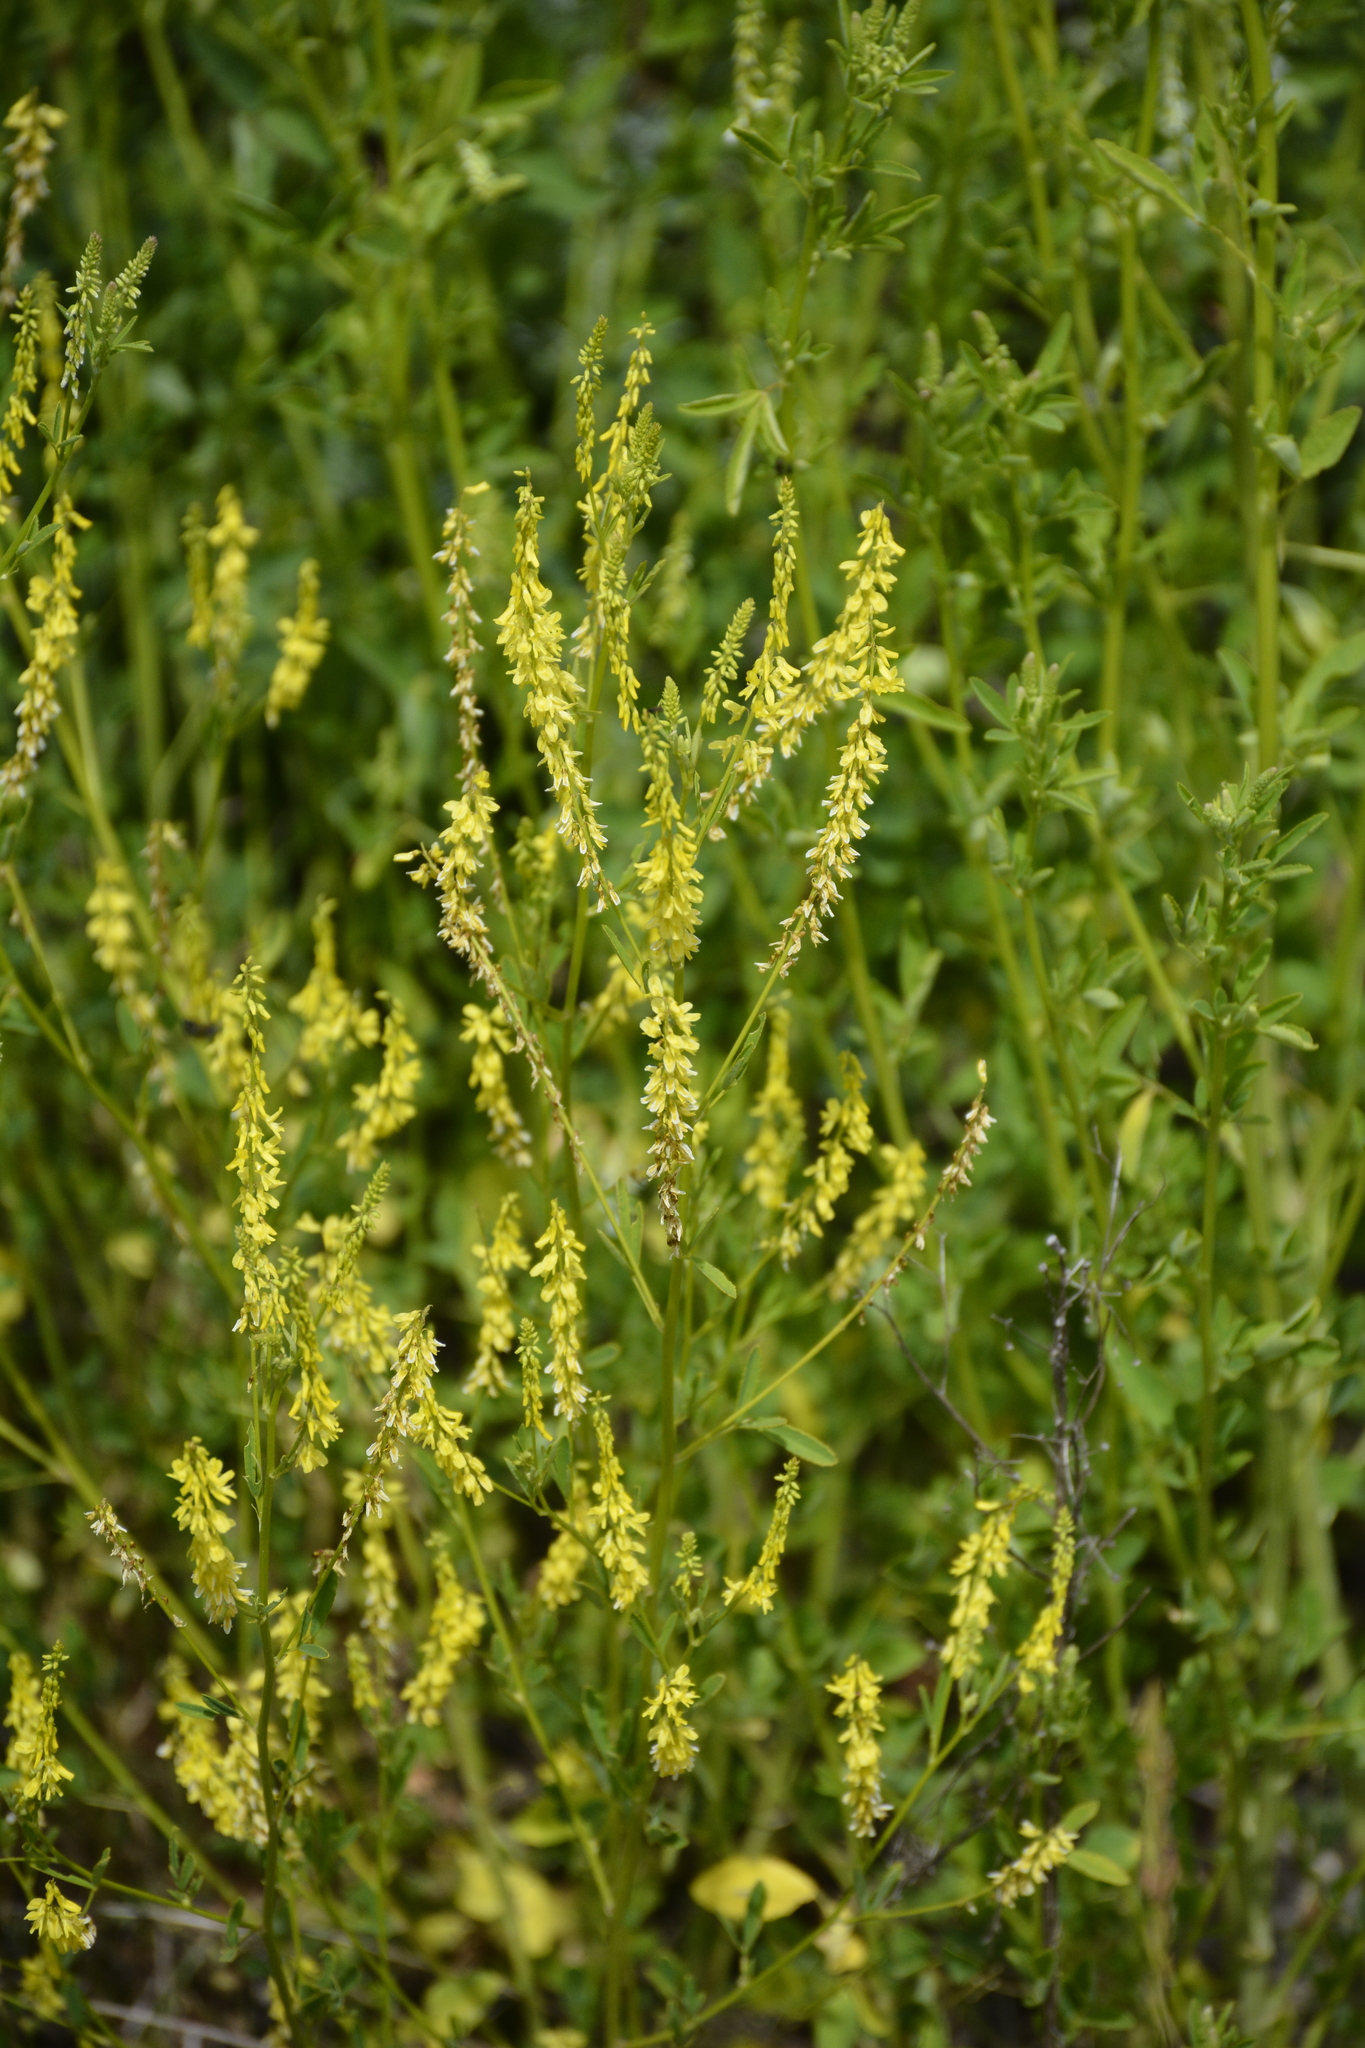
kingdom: Plantae
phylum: Tracheophyta
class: Magnoliopsida
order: Fabales
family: Fabaceae
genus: Melilotus
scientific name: Melilotus officinalis
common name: Sweetclover
